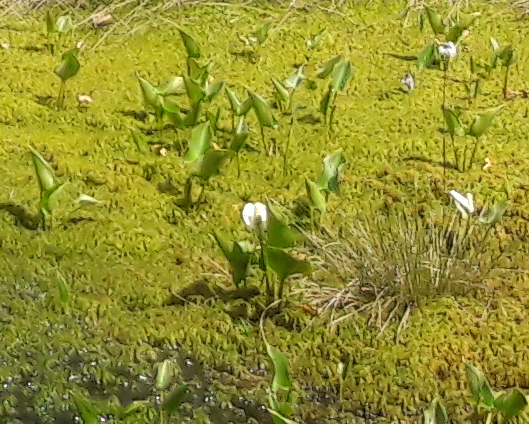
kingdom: Plantae
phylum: Tracheophyta
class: Liliopsida
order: Alismatales
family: Araceae
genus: Calla
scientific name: Calla palustris
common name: Bog arum
